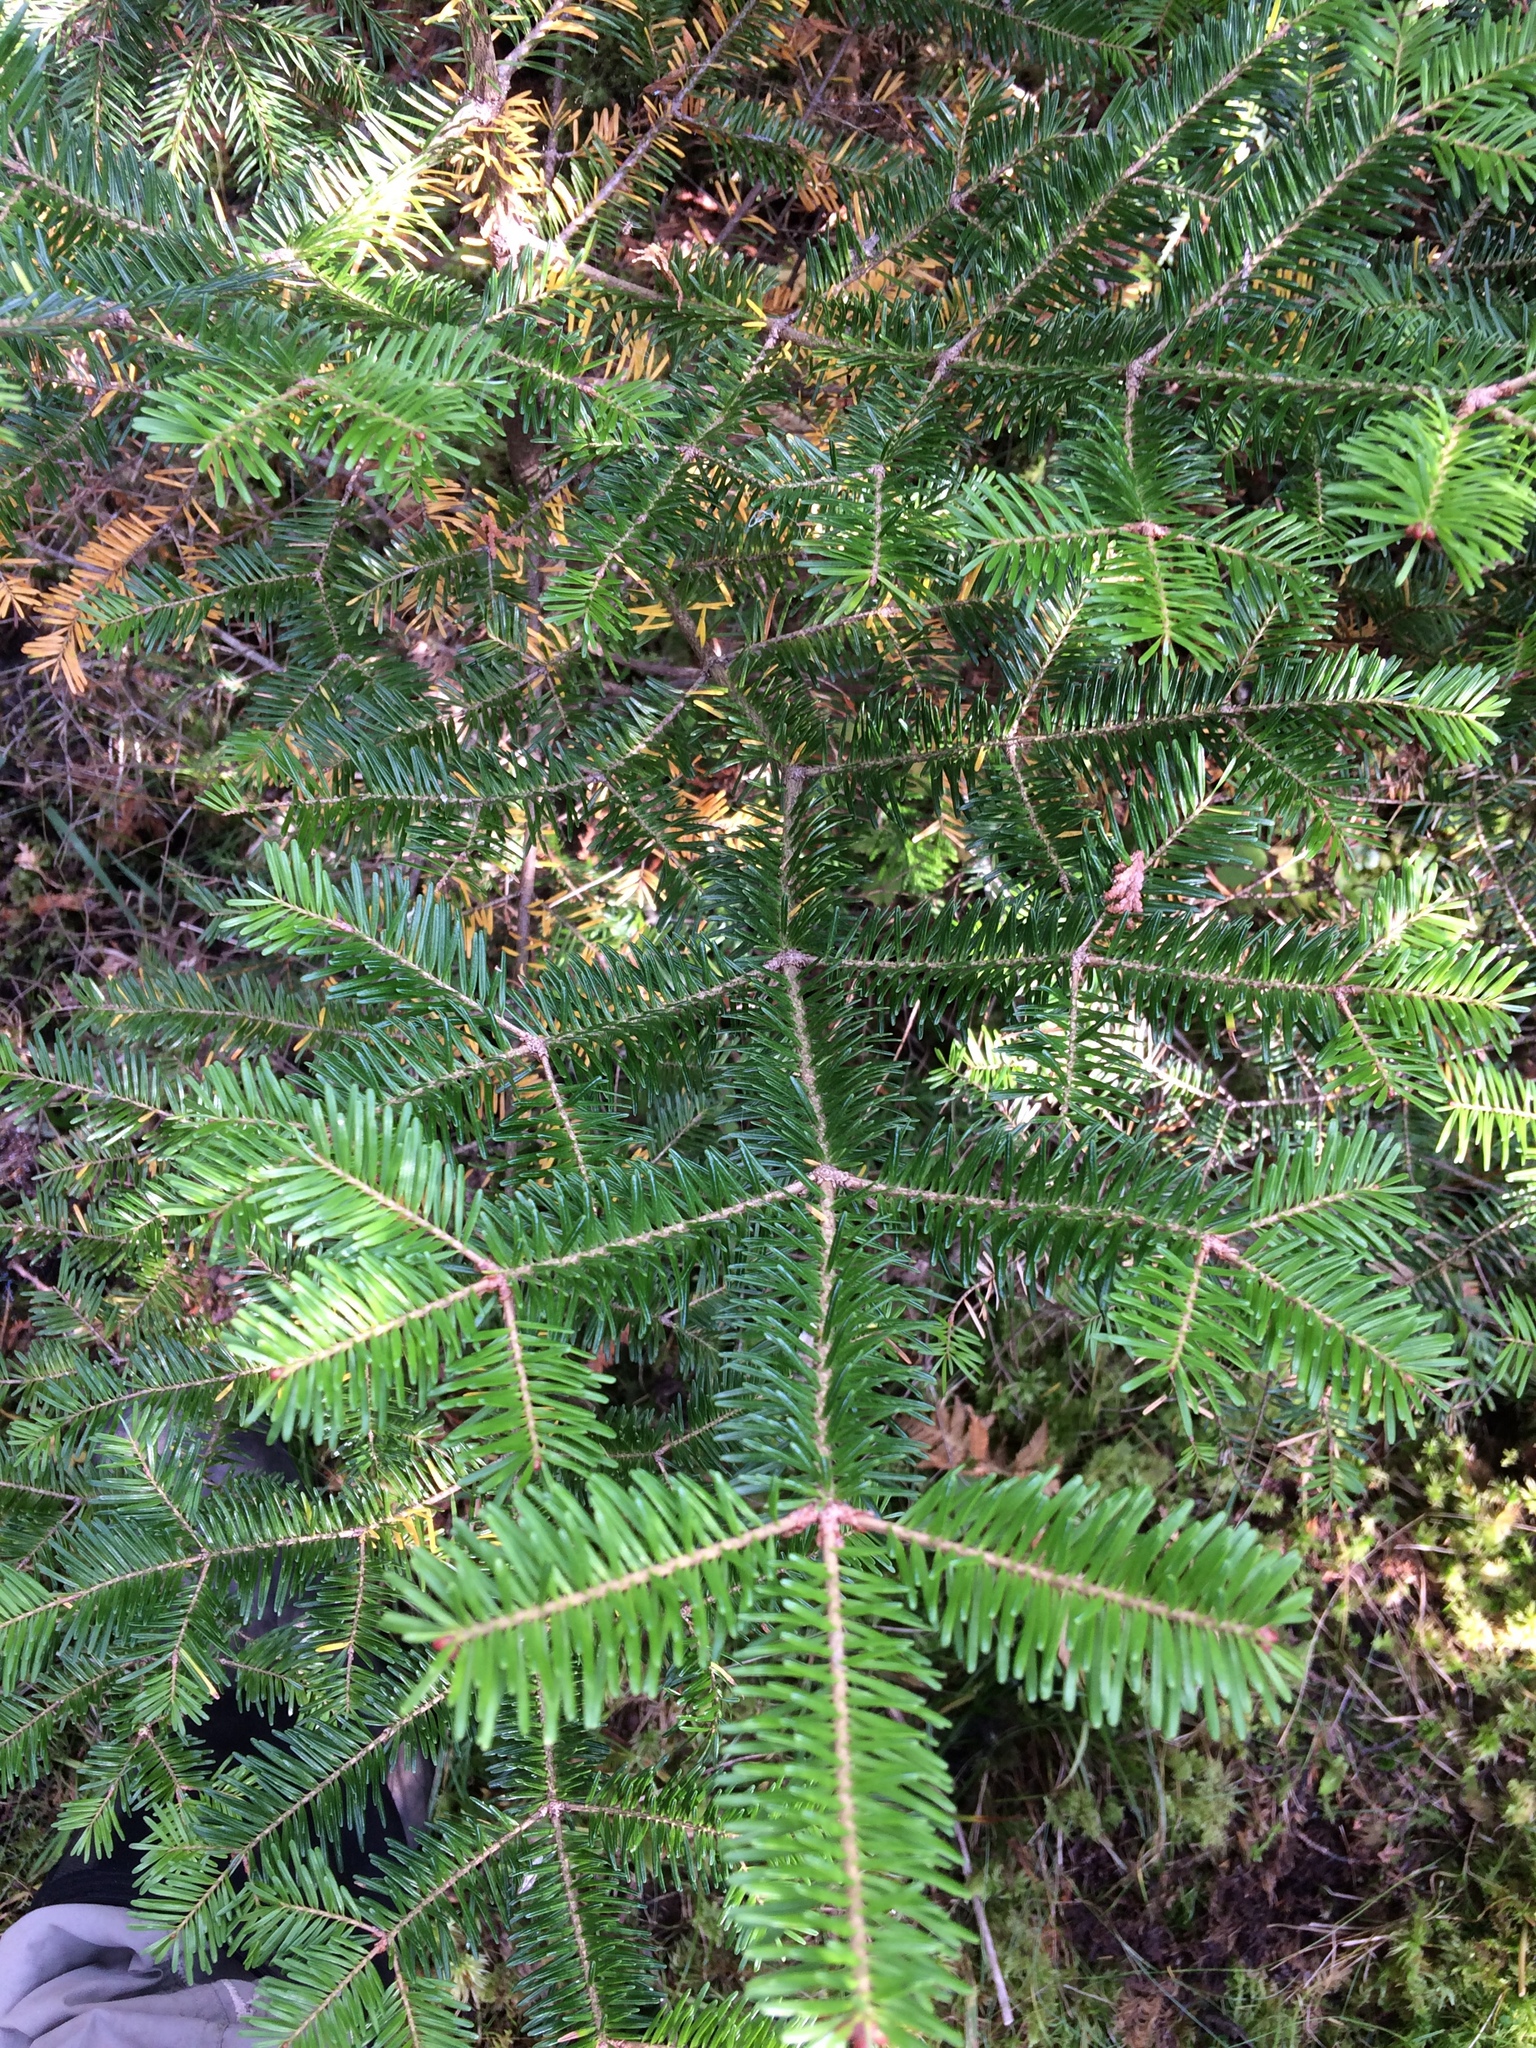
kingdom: Plantae
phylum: Tracheophyta
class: Pinopsida
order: Pinales
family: Pinaceae
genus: Abies
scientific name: Abies balsamea
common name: Balsam fir
